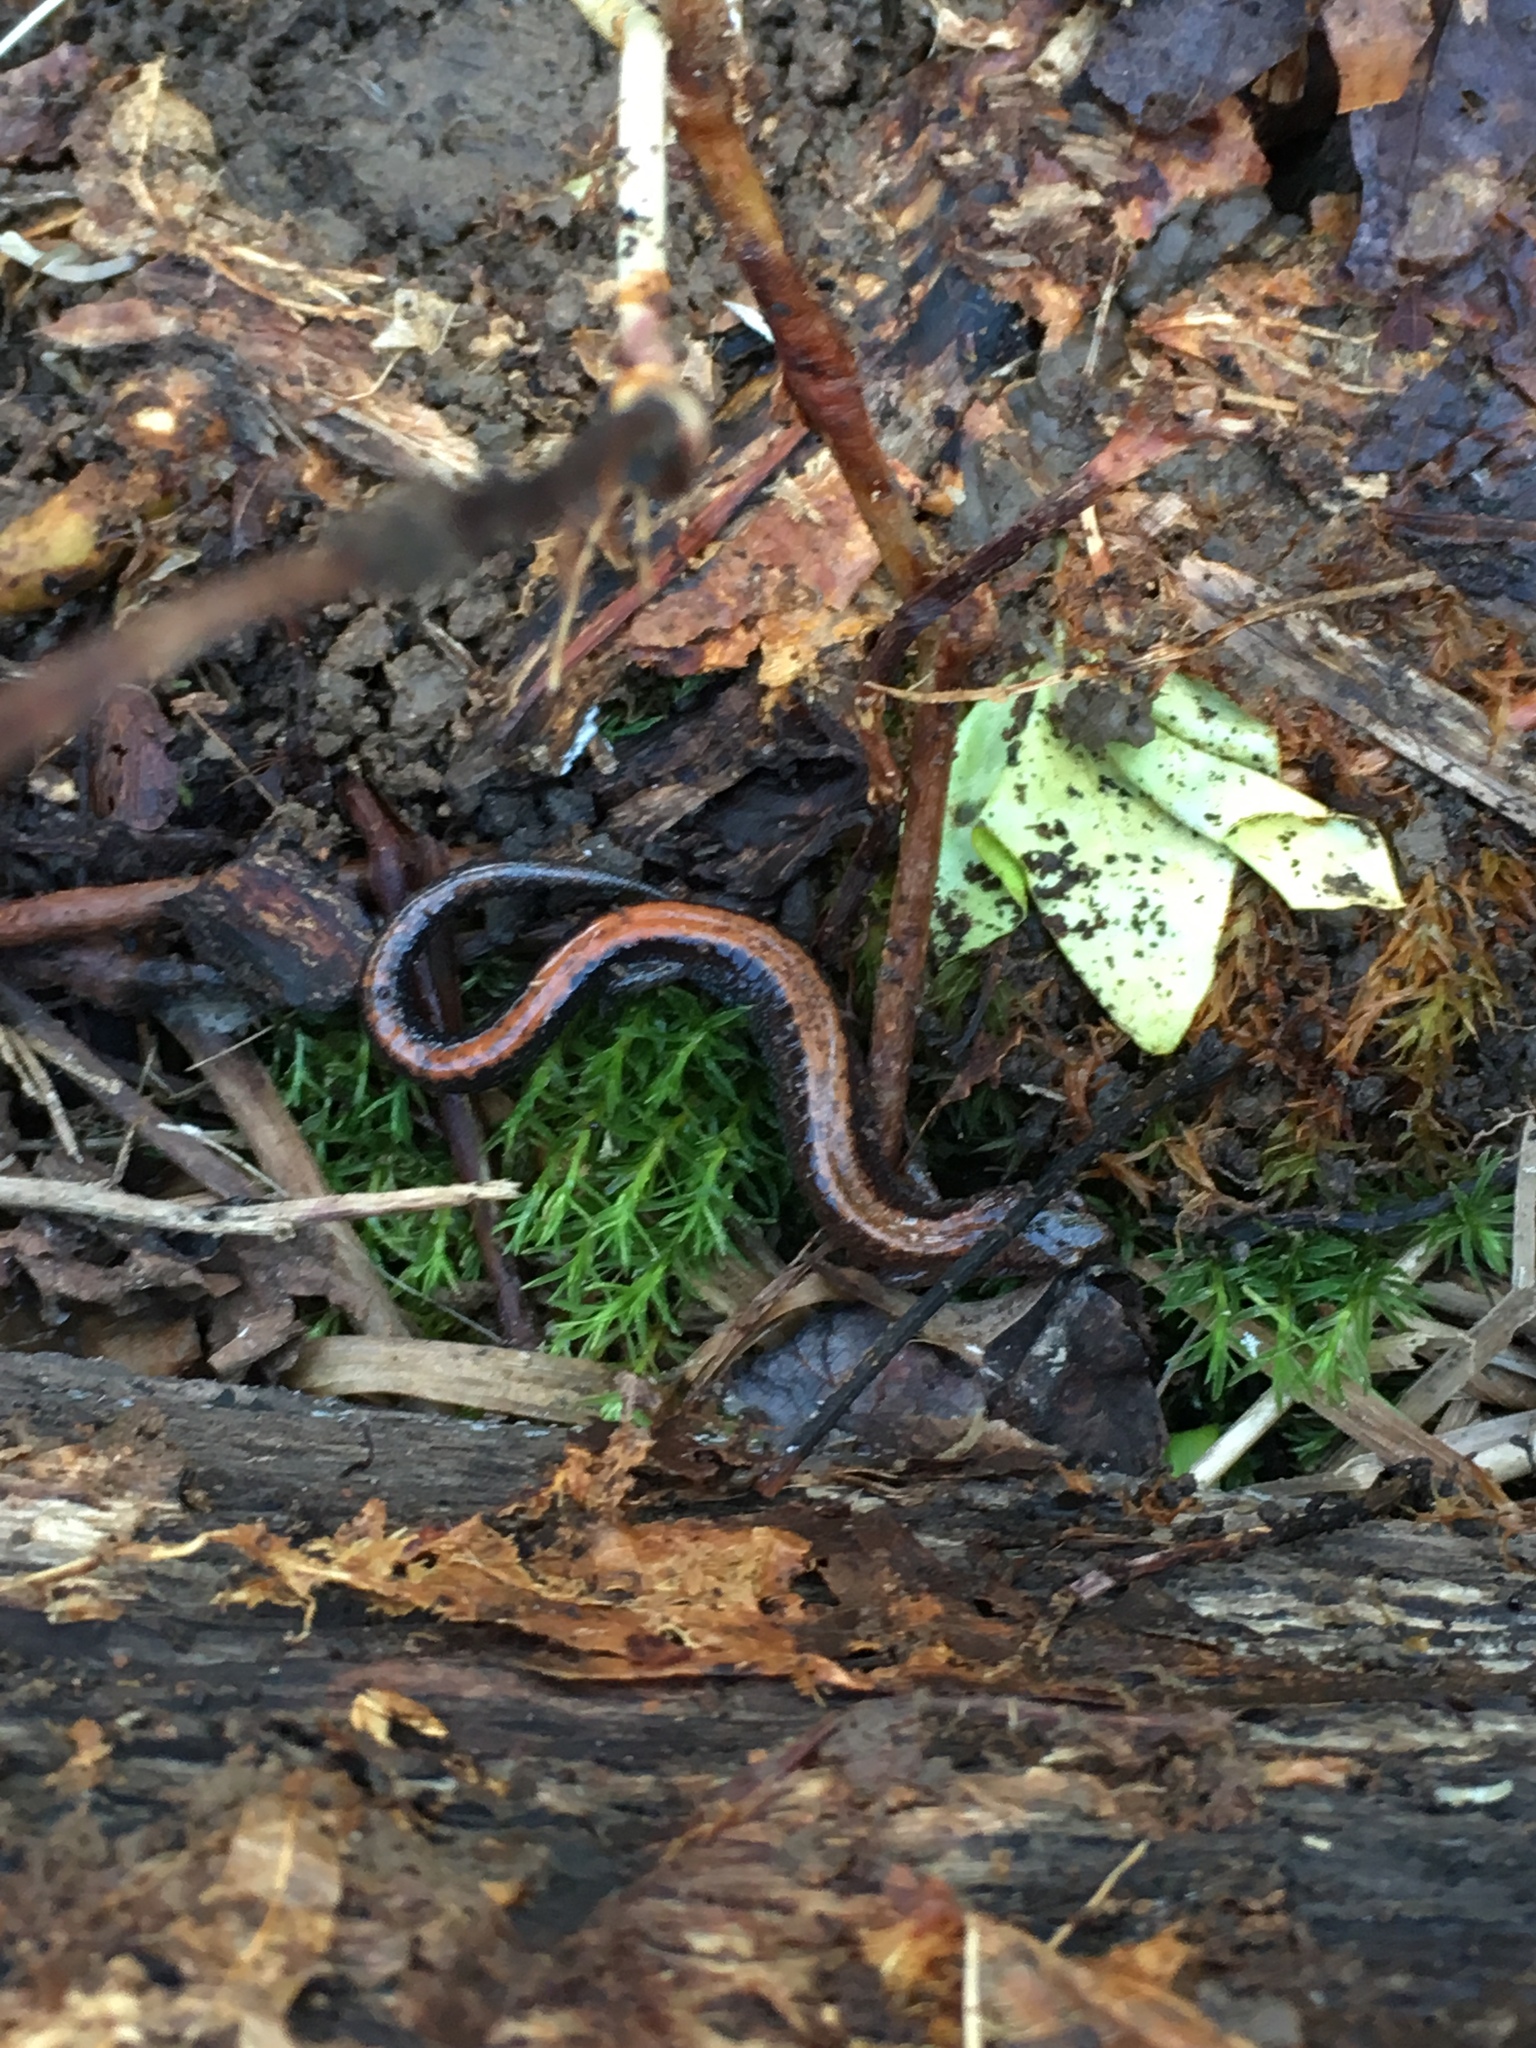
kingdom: Animalia
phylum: Chordata
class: Amphibia
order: Caudata
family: Plethodontidae
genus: Plethodon
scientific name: Plethodon cinereus
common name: Redback salamander
